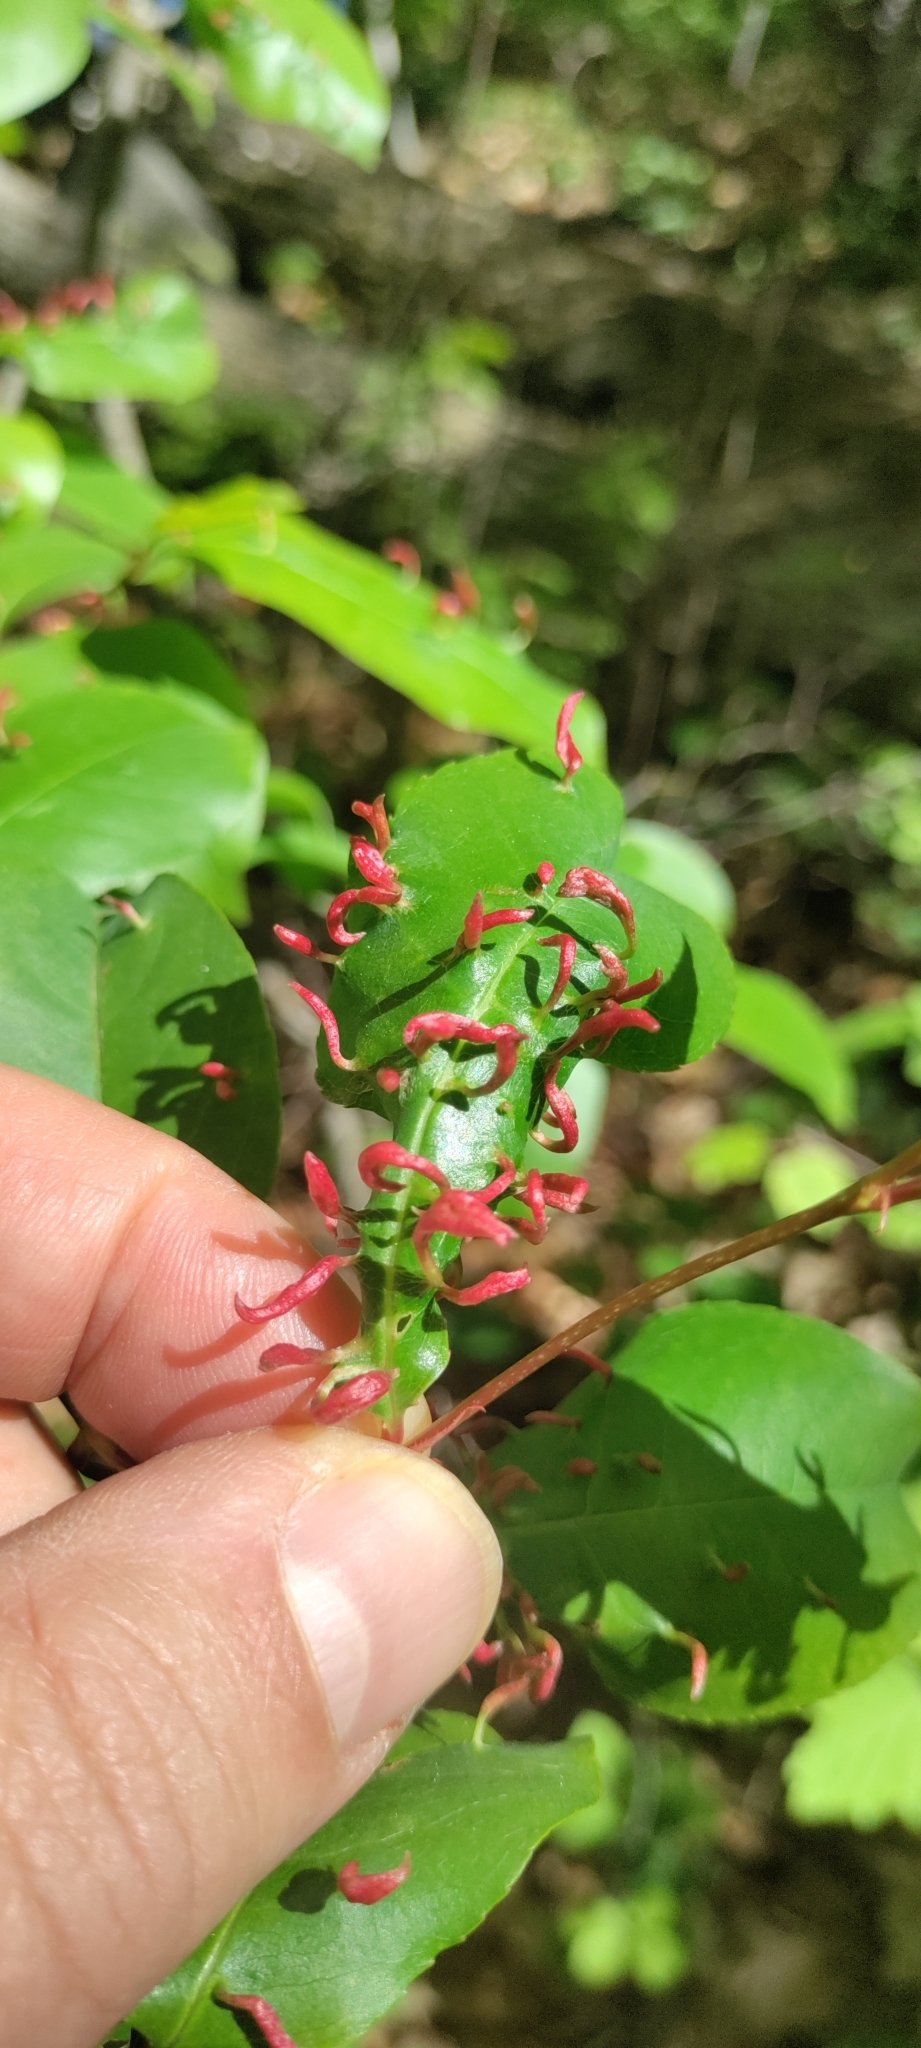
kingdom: Animalia
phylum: Arthropoda
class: Arachnida
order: Trombidiformes
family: Eriophyidae
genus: Eriophyes
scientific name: Eriophyes
